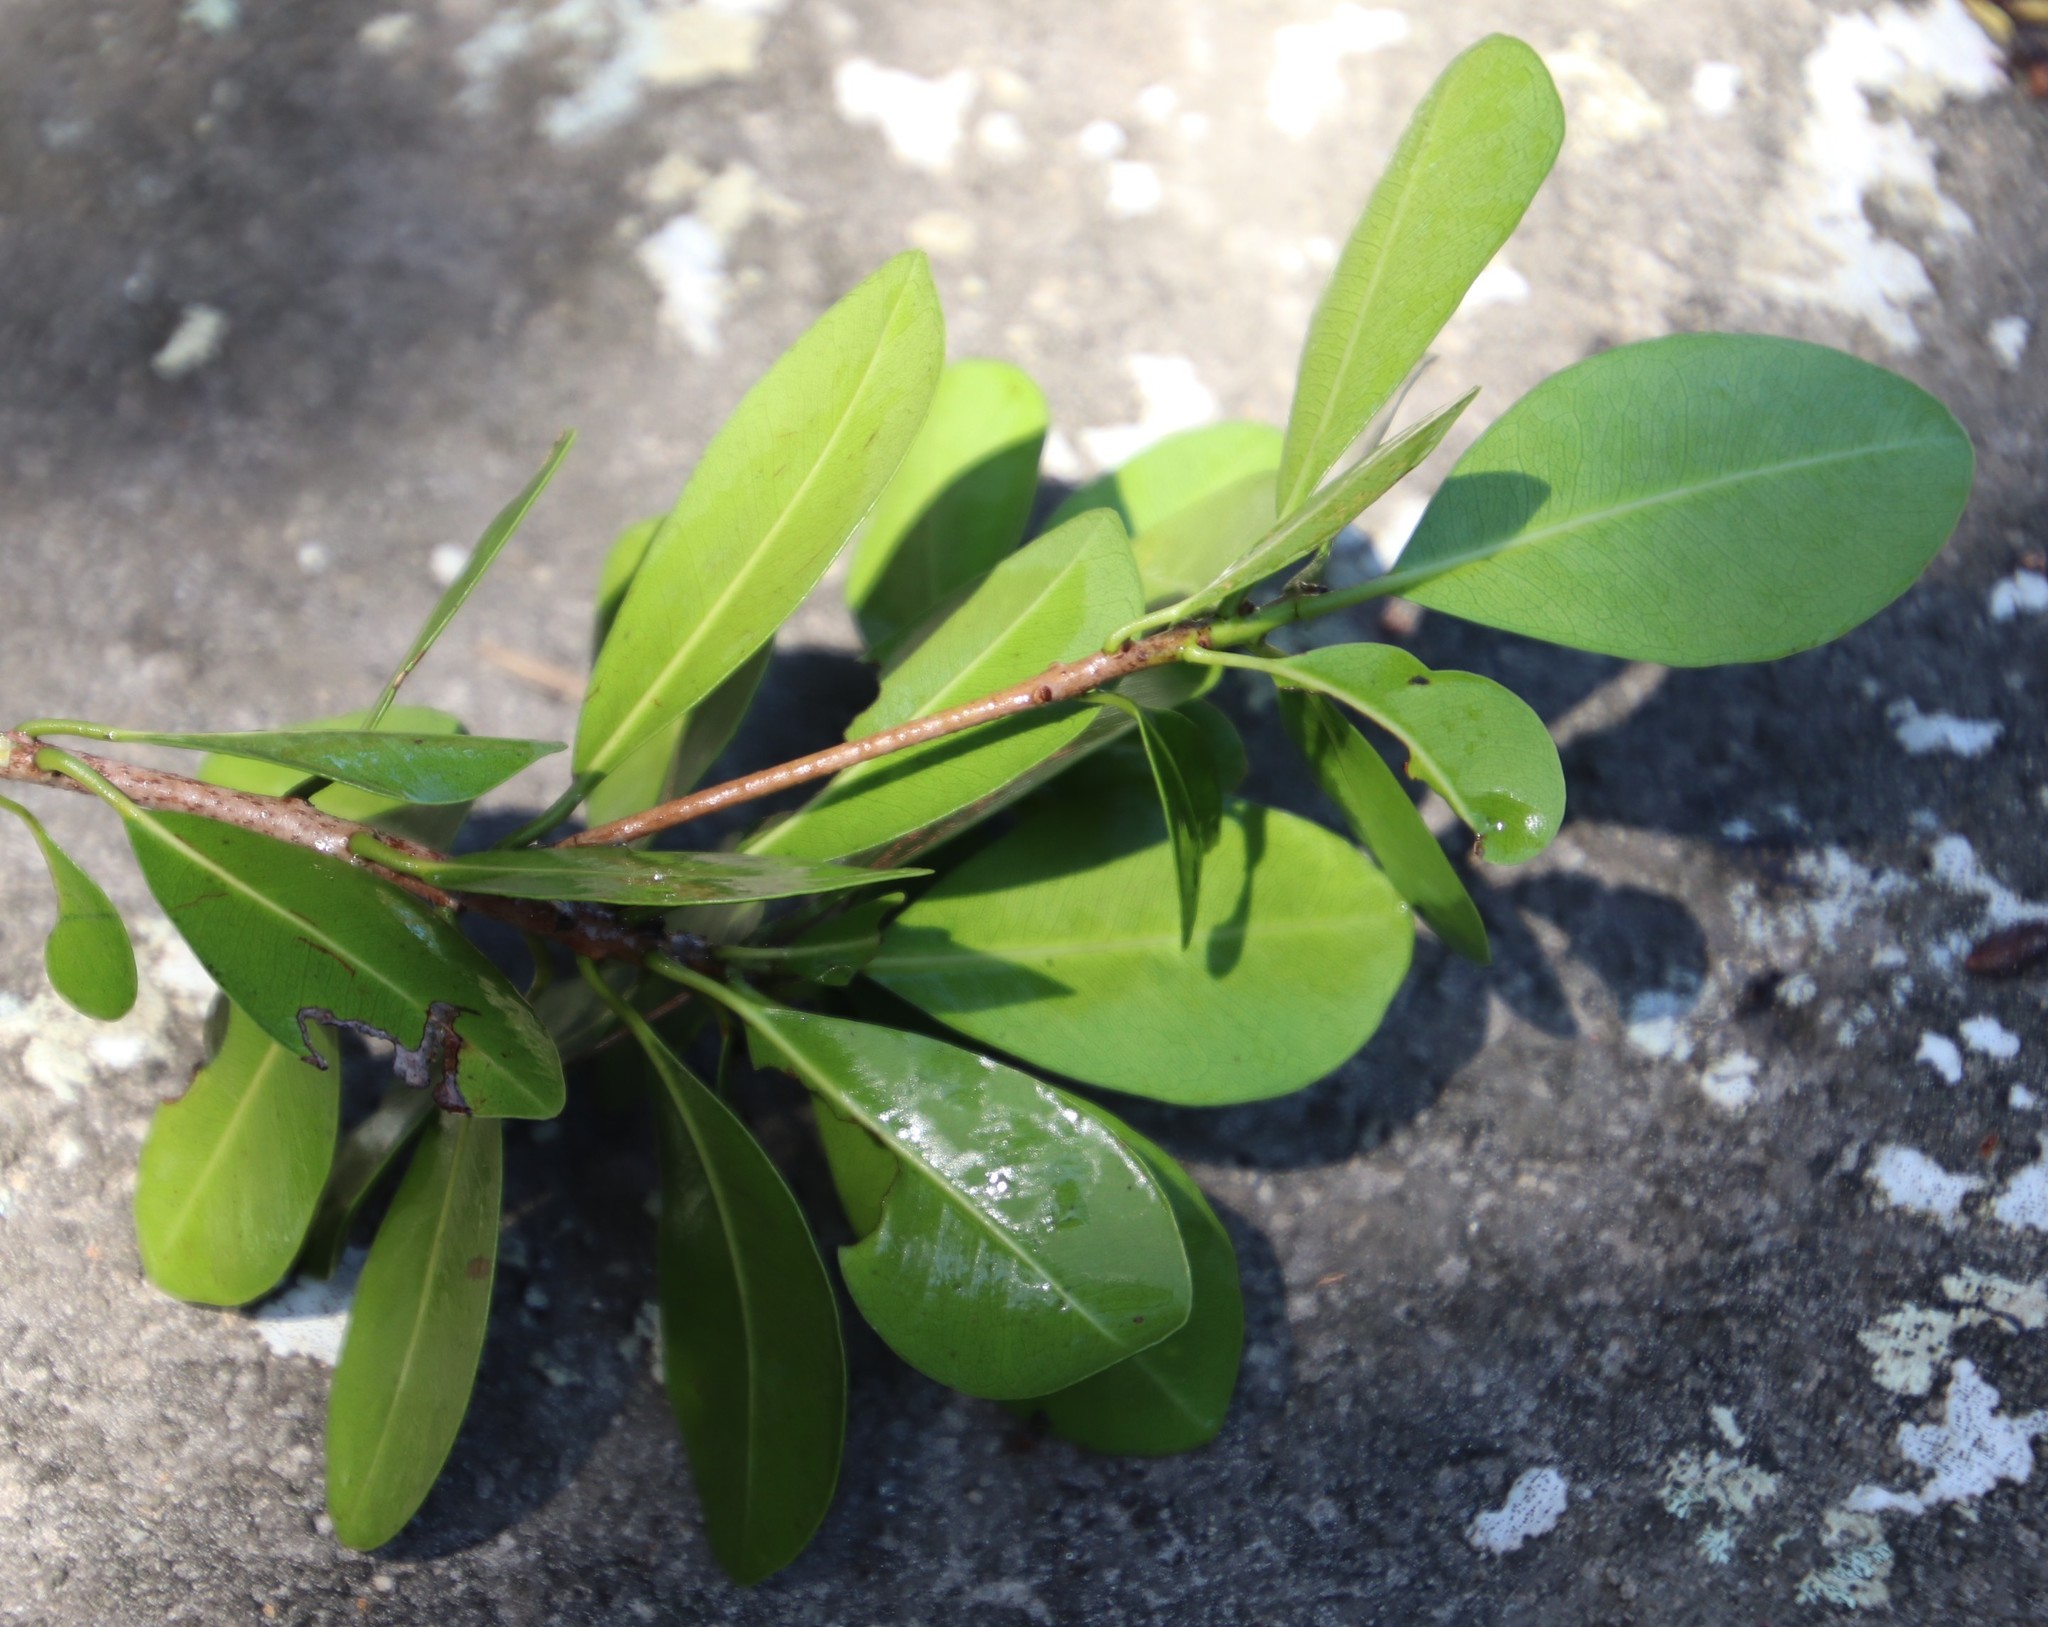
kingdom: Plantae
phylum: Tracheophyta
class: Magnoliopsida
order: Ericales
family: Sapotaceae
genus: Mimusops
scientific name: Mimusops obovata
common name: Red milkwood
